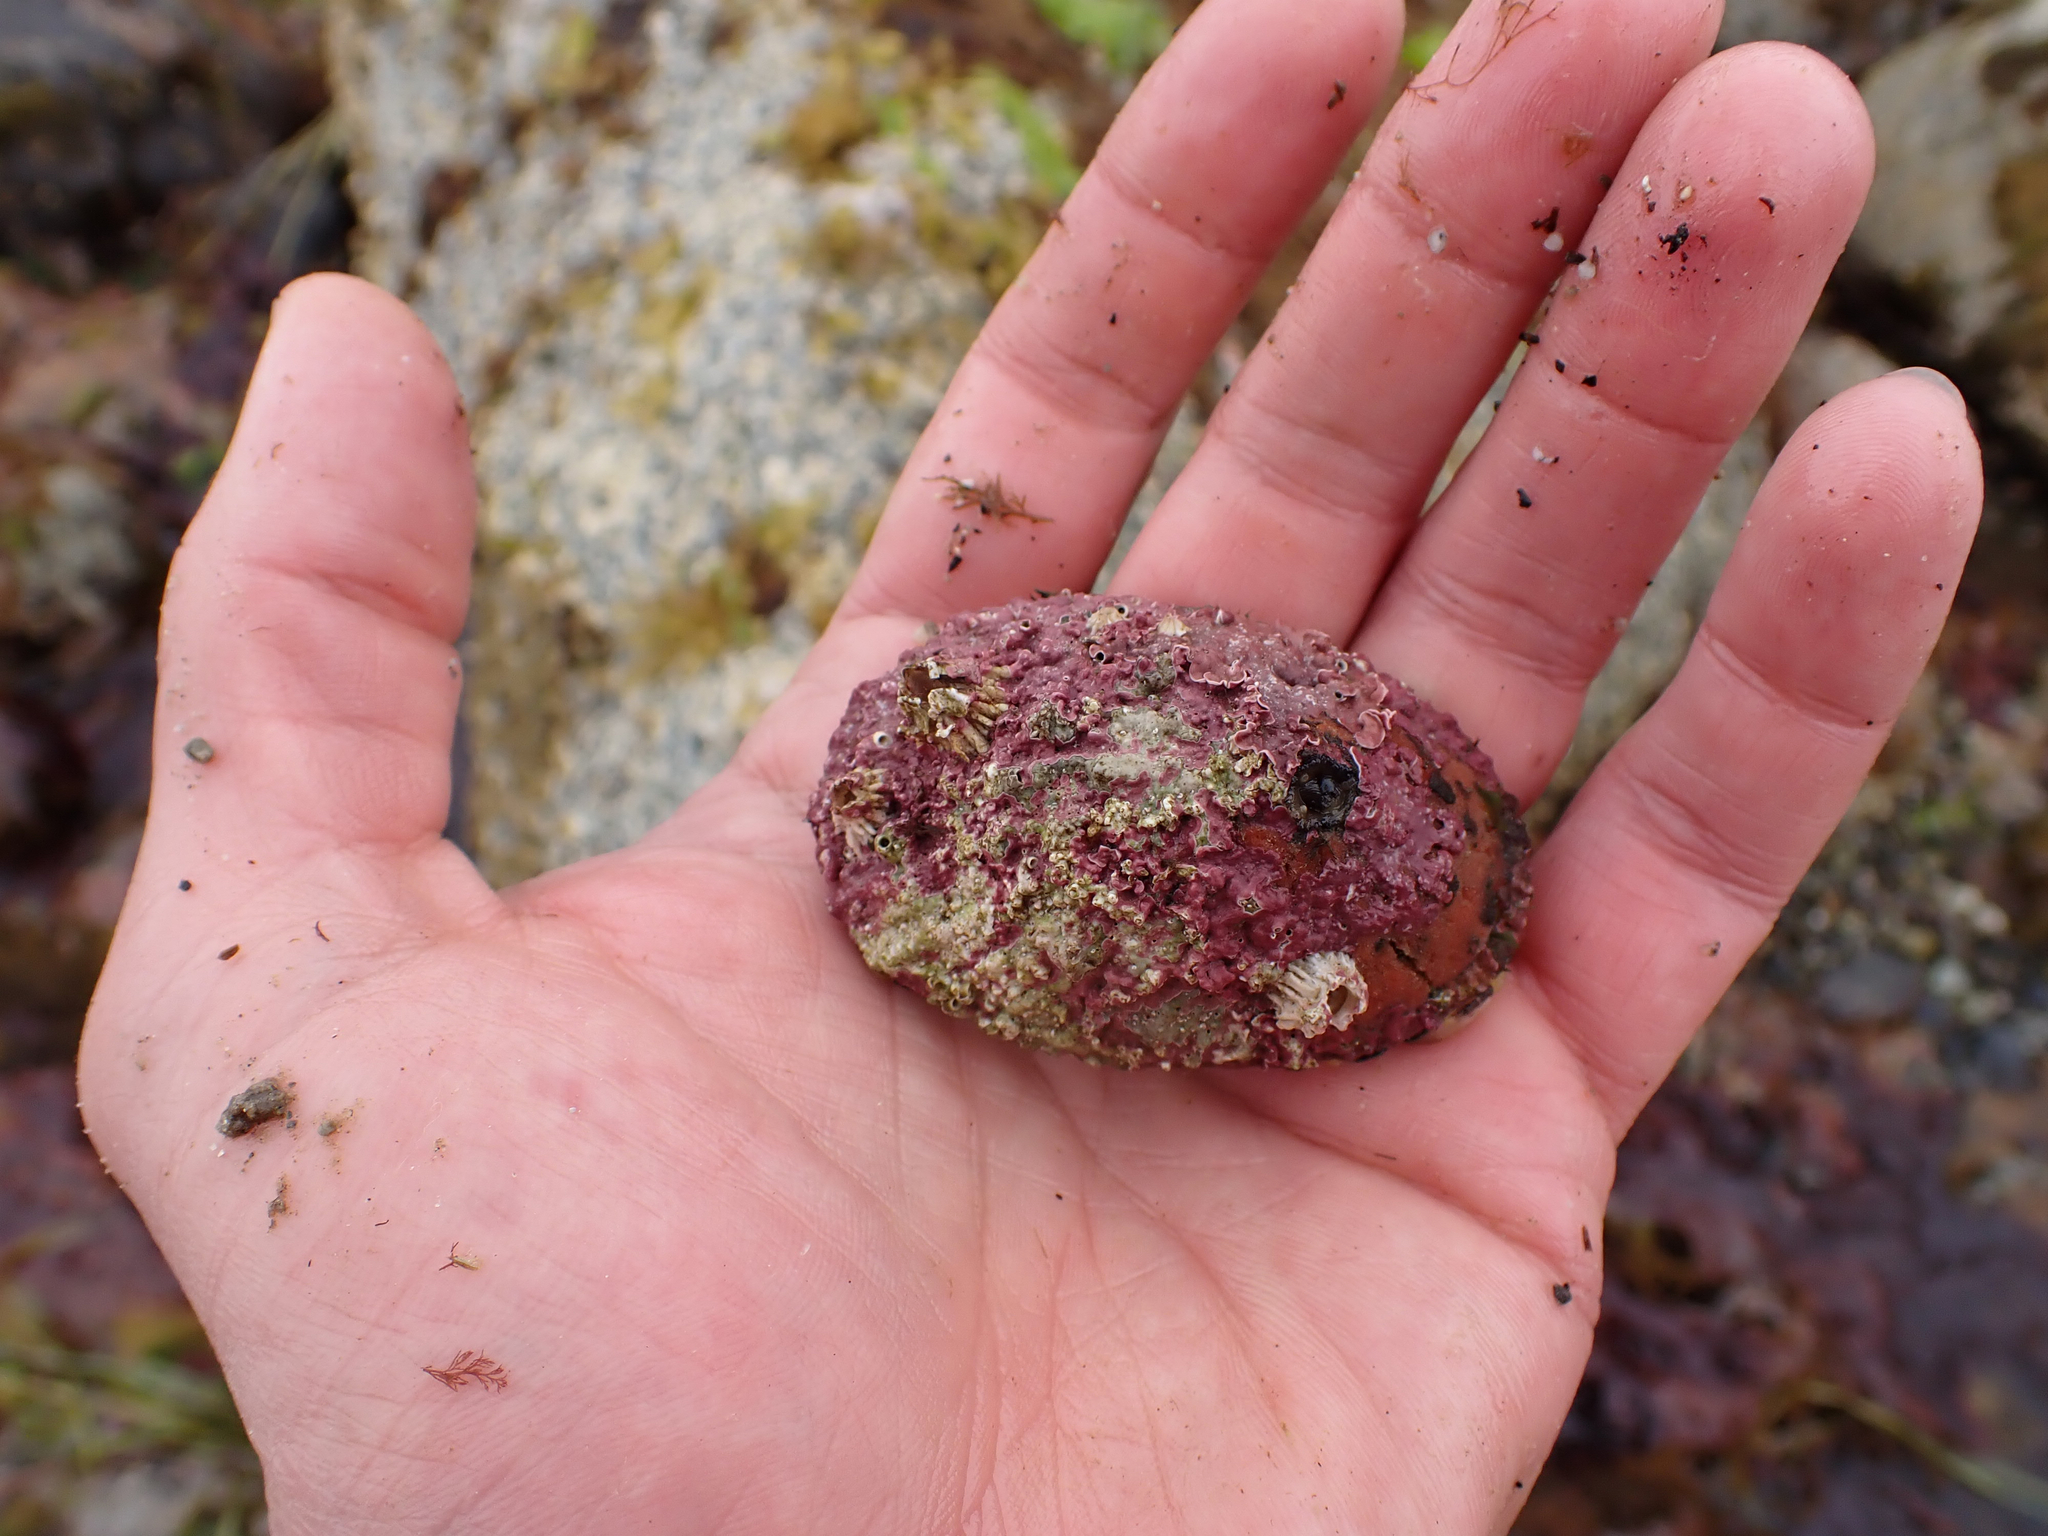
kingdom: Animalia
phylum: Mollusca
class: Gastropoda
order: Lepetellida
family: Haliotidae
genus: Haliotis
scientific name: Haliotis kamtschatkana
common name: Pinto abalone
